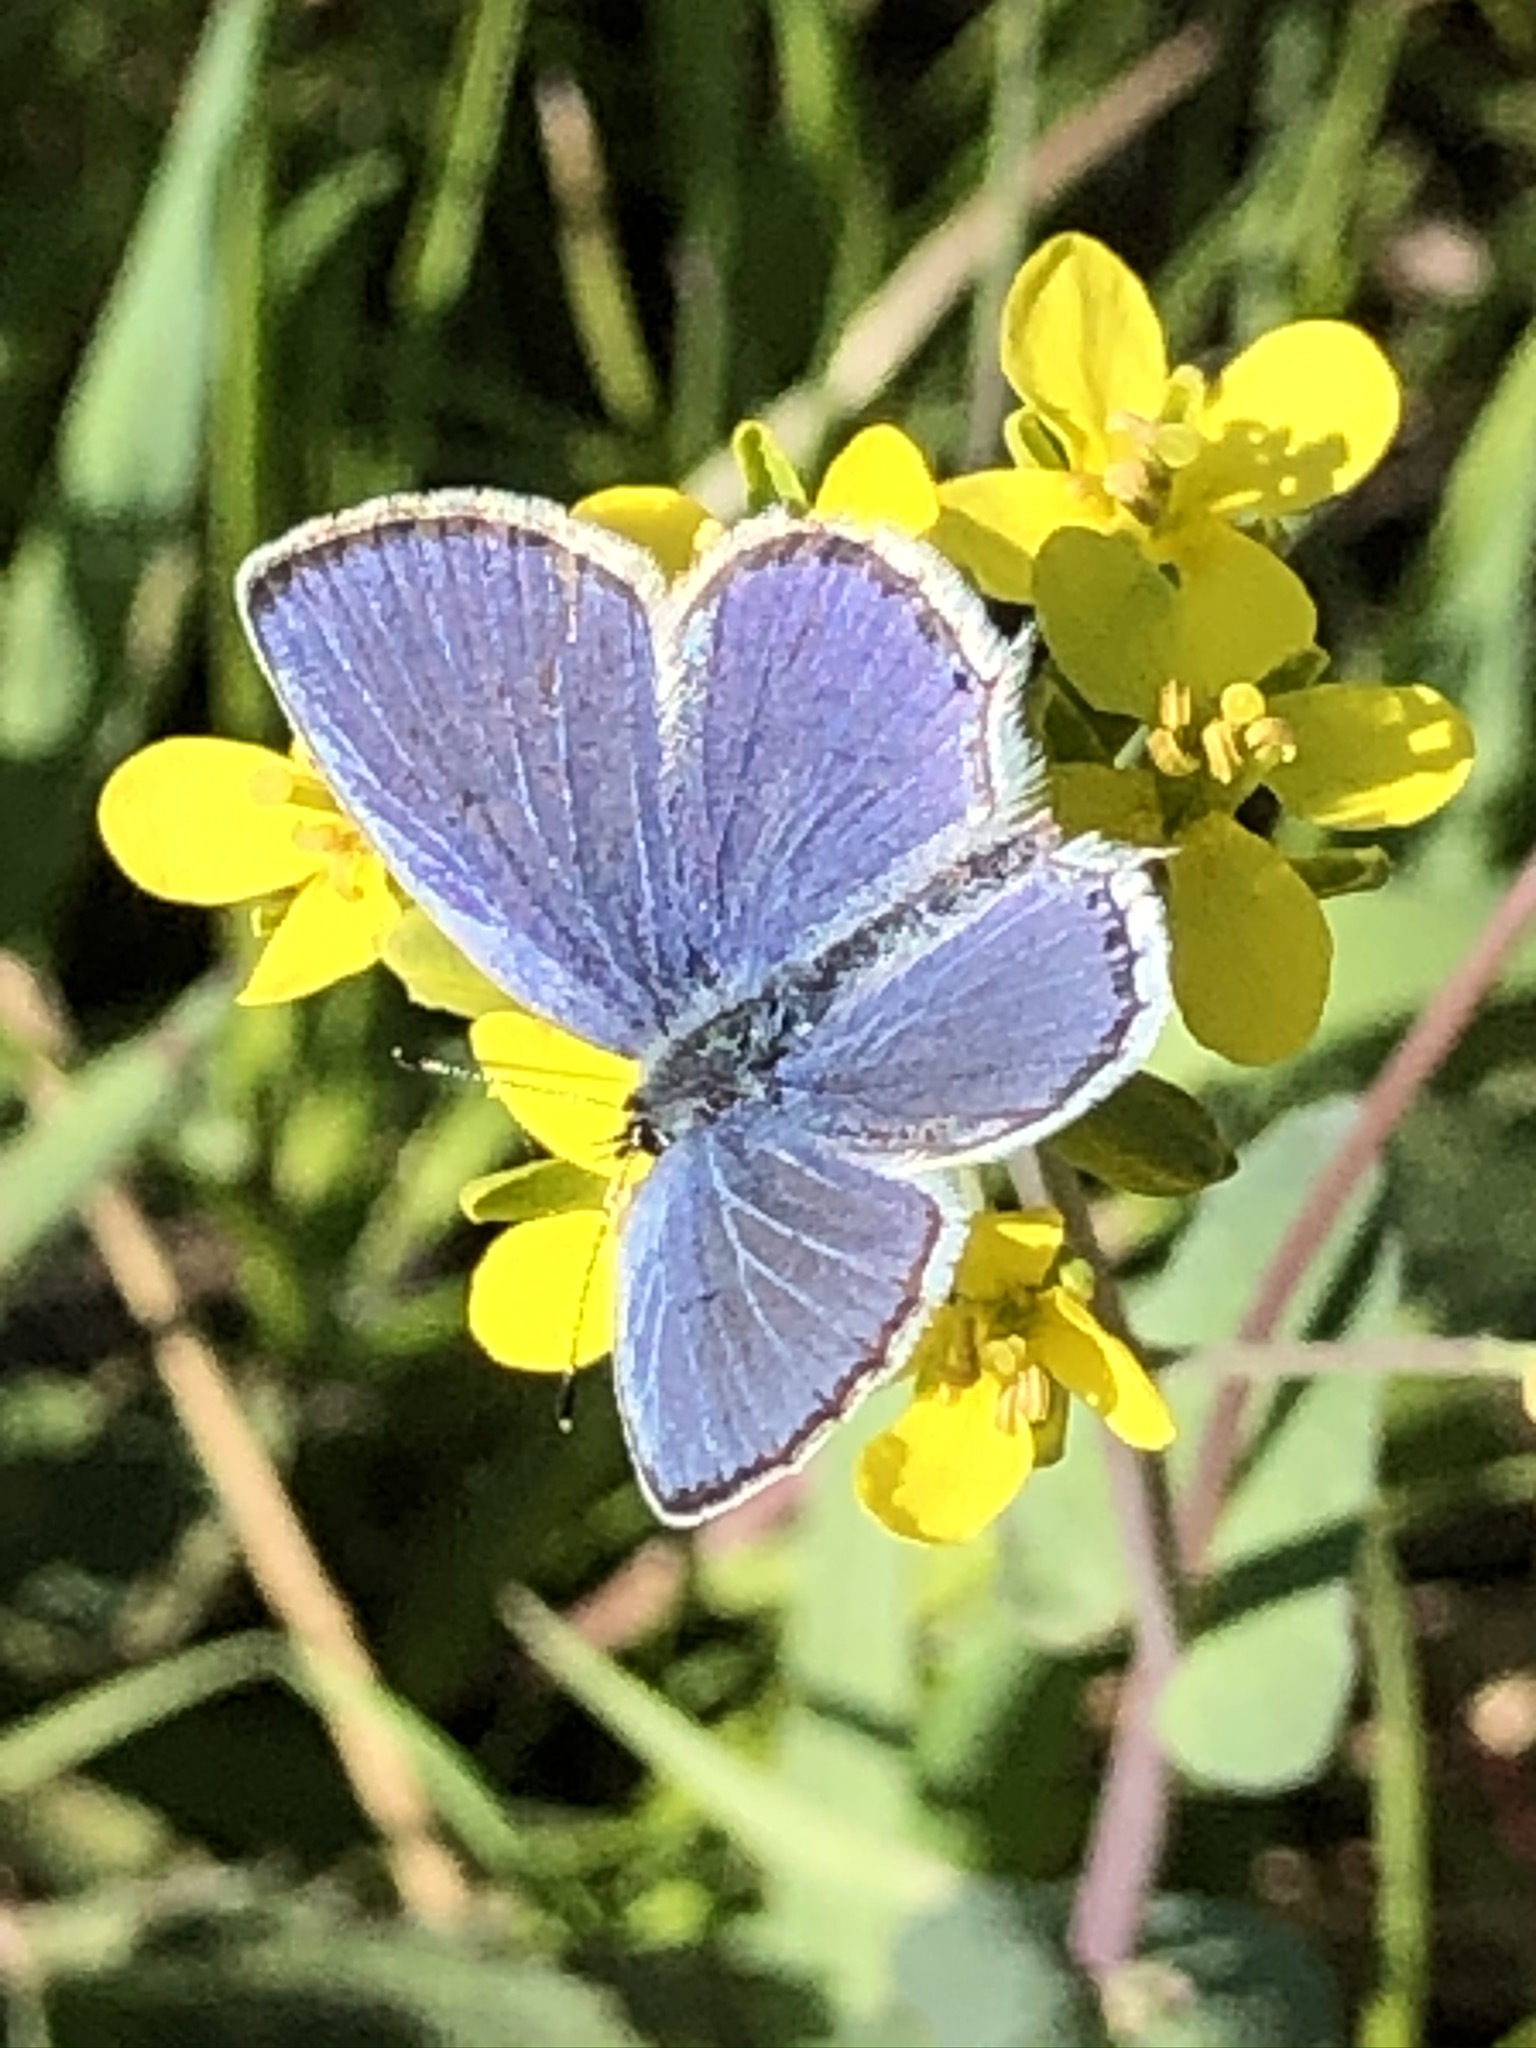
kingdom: Animalia
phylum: Arthropoda
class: Insecta
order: Lepidoptera
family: Lycaenidae
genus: Elkalyce
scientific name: Elkalyce argiades
